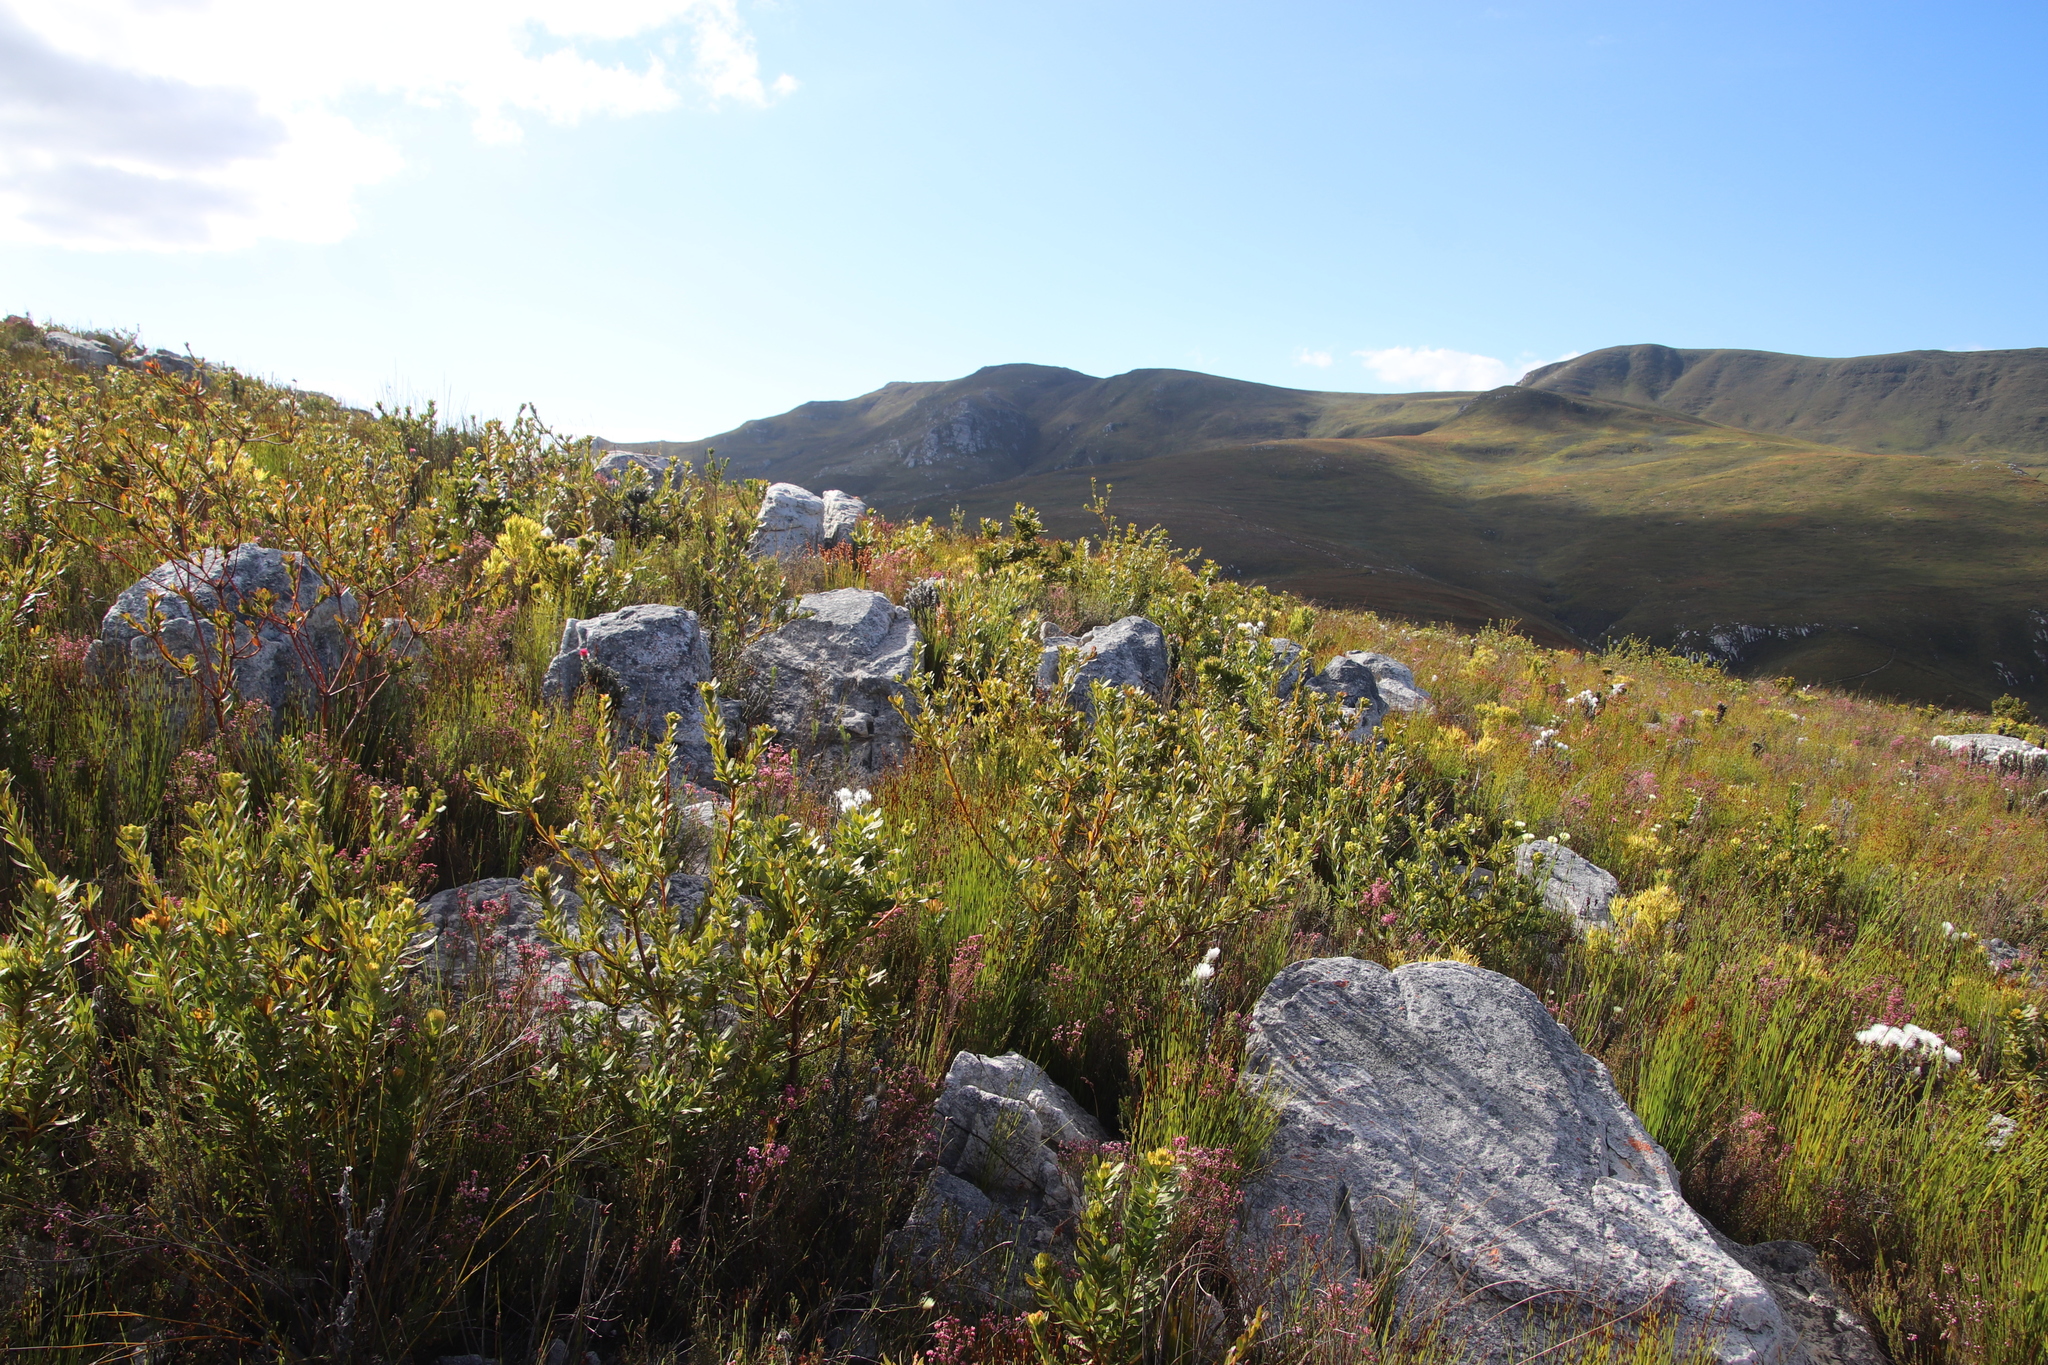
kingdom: Plantae
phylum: Tracheophyta
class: Magnoliopsida
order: Proteales
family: Proteaceae
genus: Aulax
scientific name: Aulax umbellata
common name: Broad-leaf featherbush
